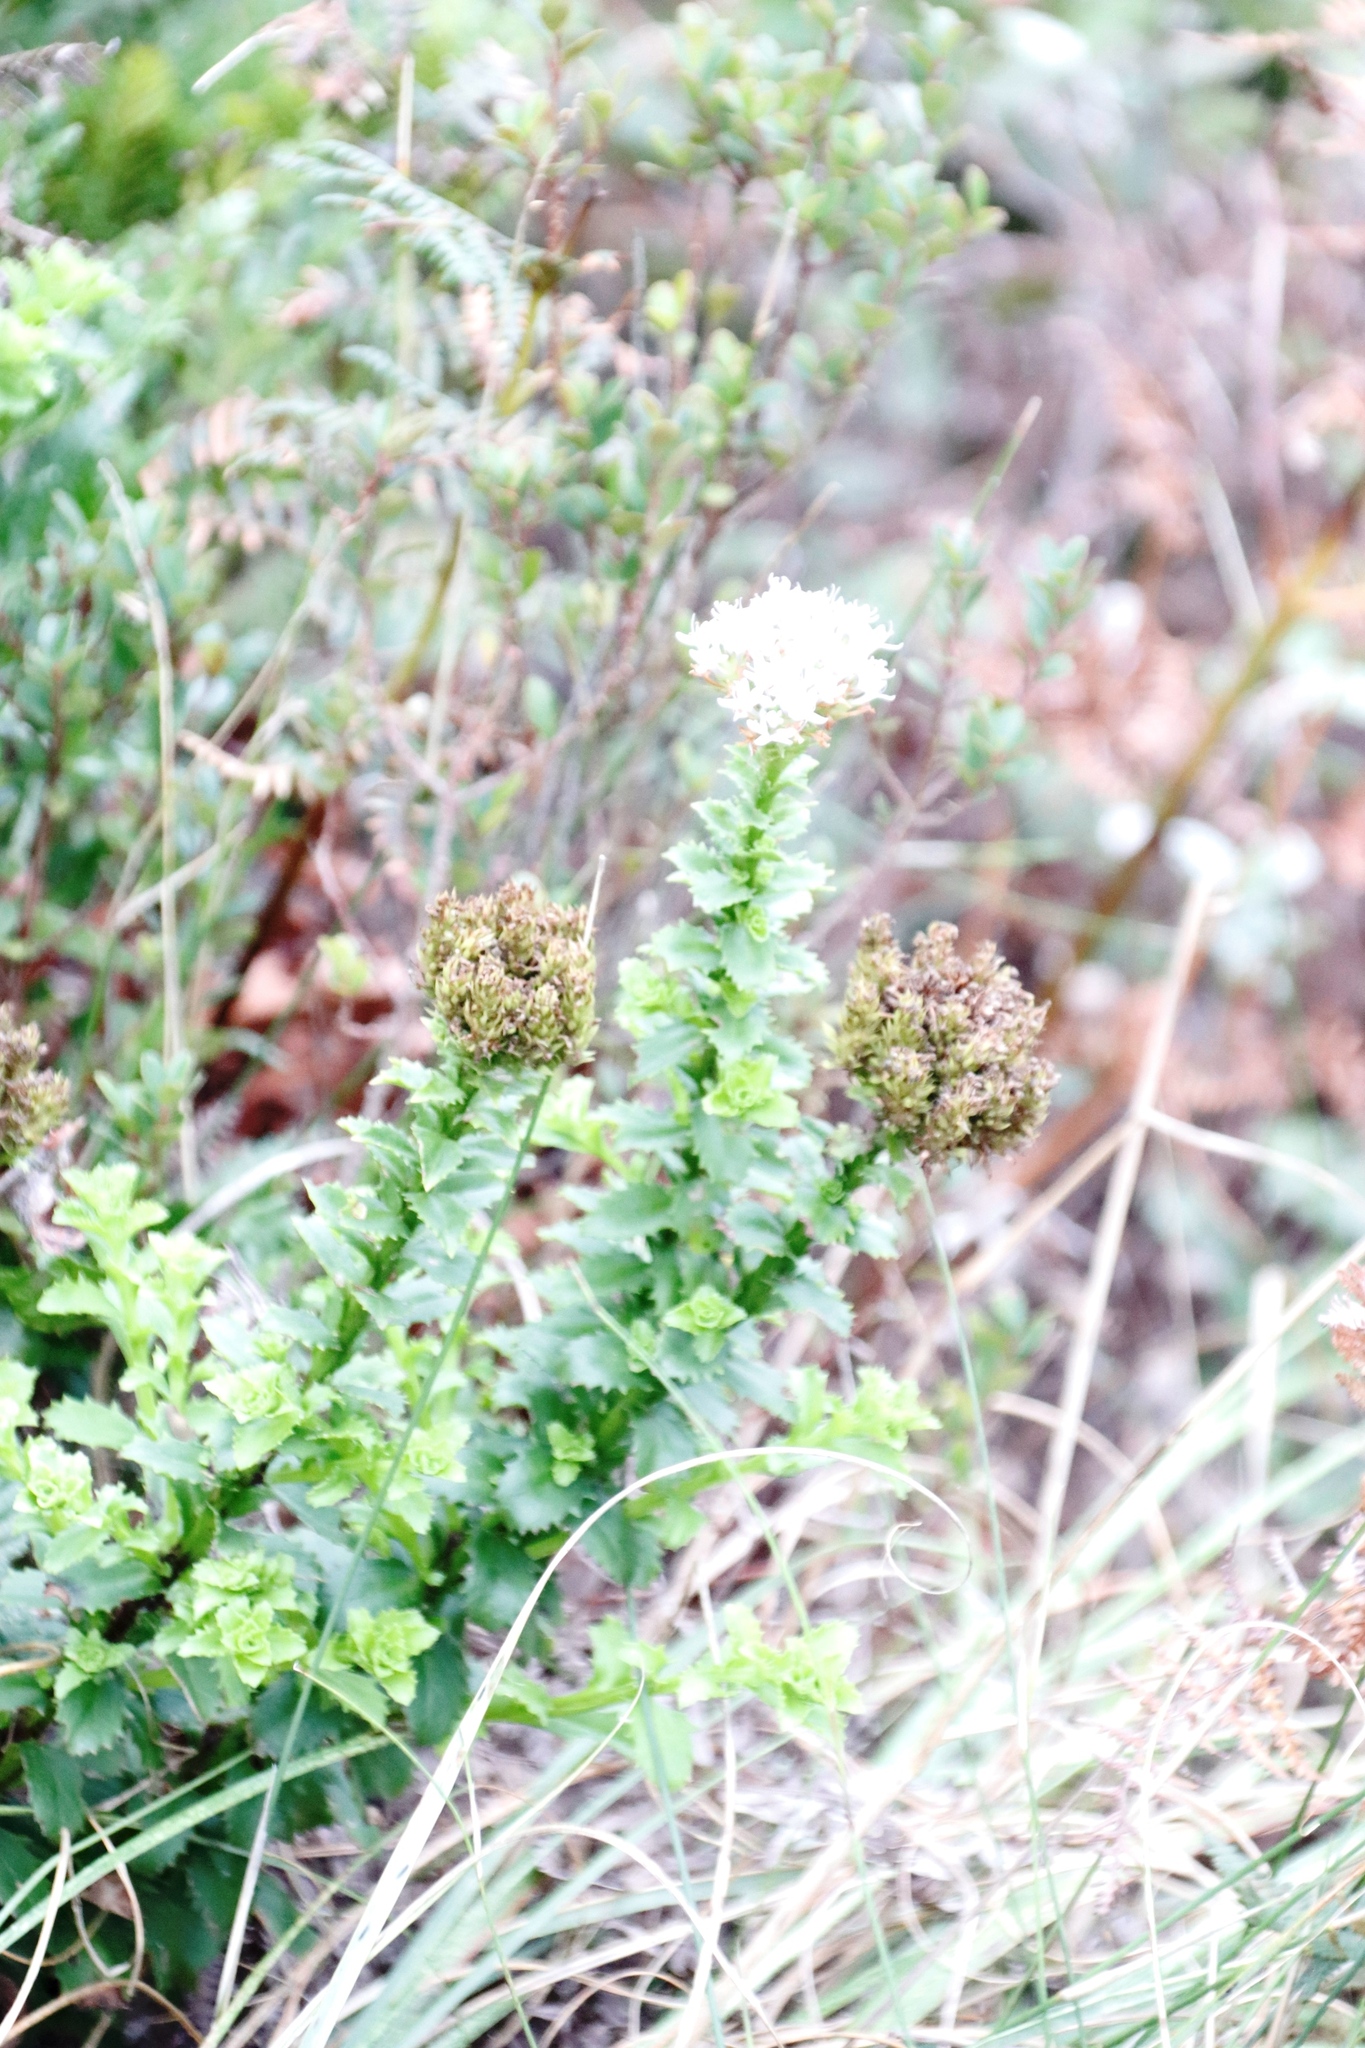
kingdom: Plantae
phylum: Tracheophyta
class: Magnoliopsida
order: Lamiales
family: Scrophulariaceae
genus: Pseudoselago
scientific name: Pseudoselago serrata
